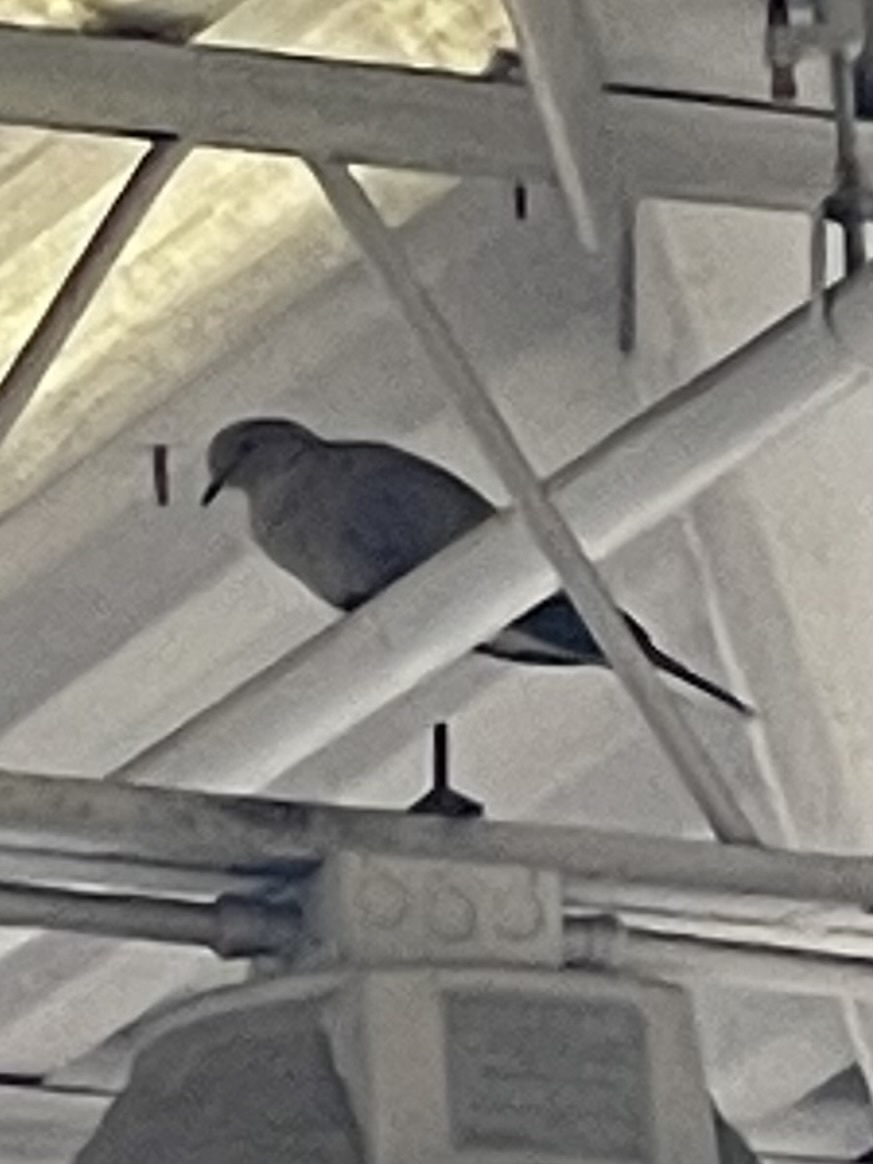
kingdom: Animalia
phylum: Chordata
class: Aves
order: Columbiformes
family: Columbidae
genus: Streptopelia
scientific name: Streptopelia decaocto
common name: Eurasian collared dove
